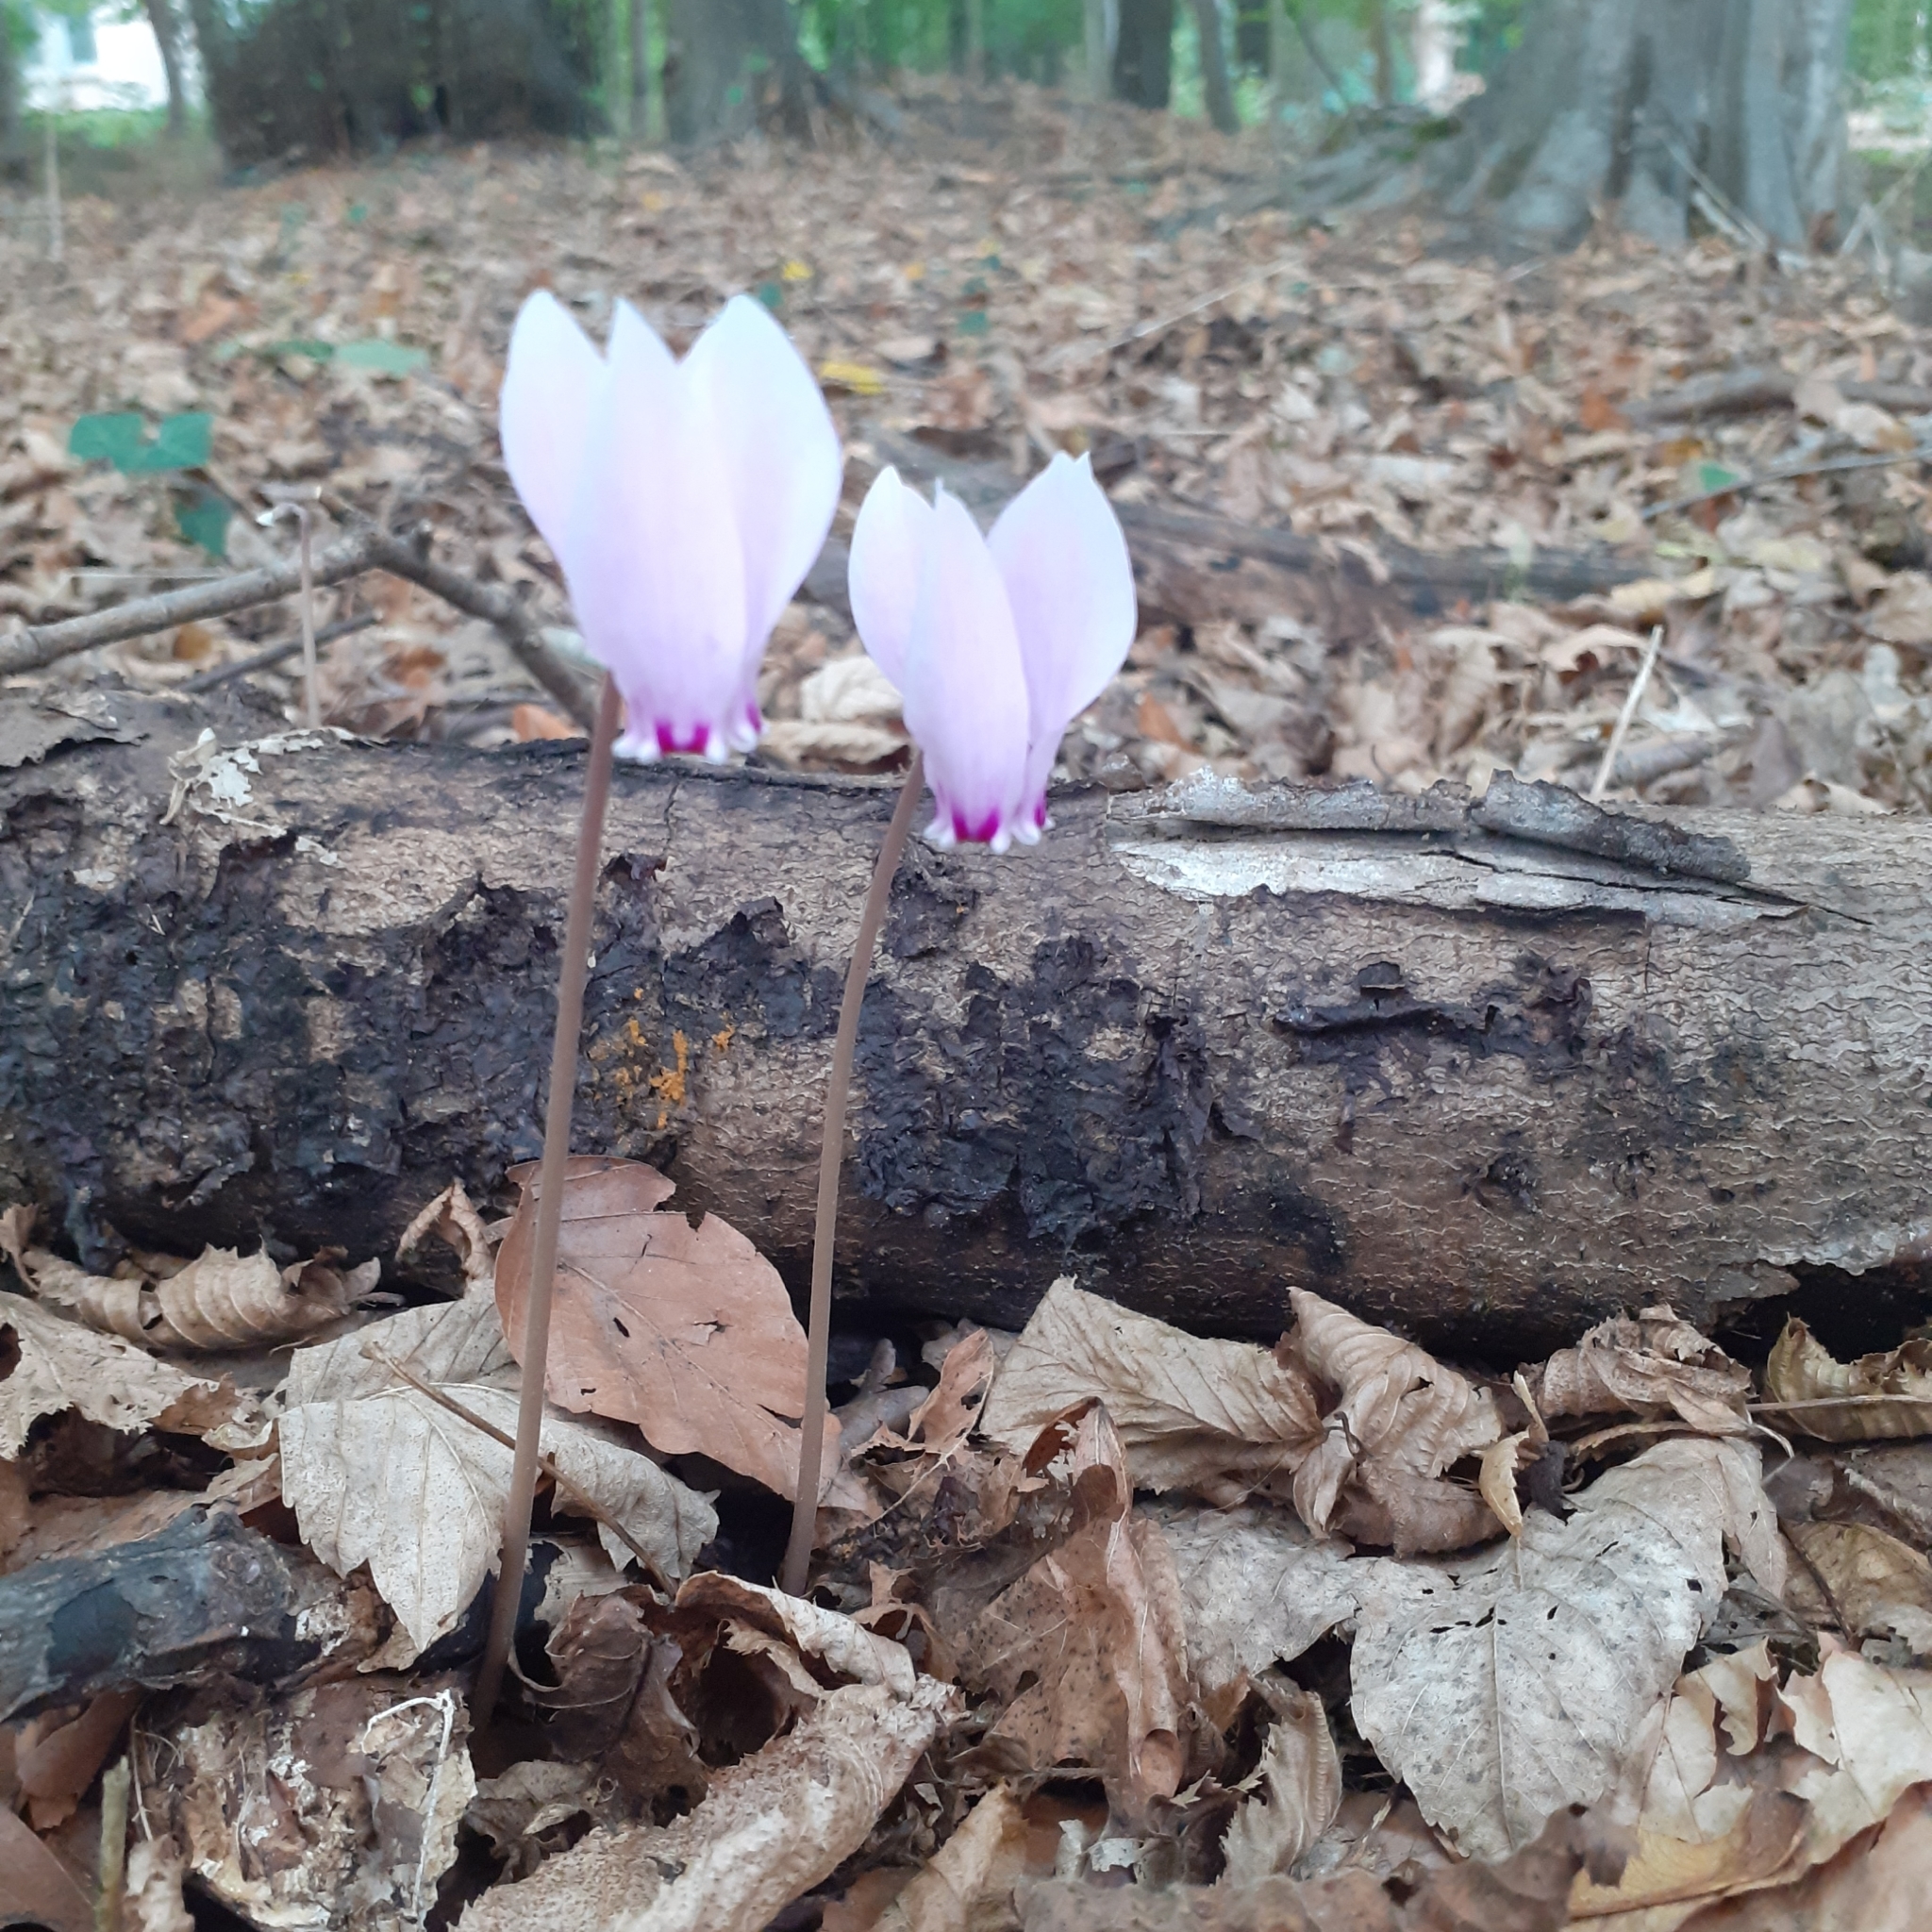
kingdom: Plantae
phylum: Tracheophyta
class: Magnoliopsida
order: Ericales
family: Primulaceae
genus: Cyclamen
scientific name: Cyclamen hederifolium
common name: Sowbread
